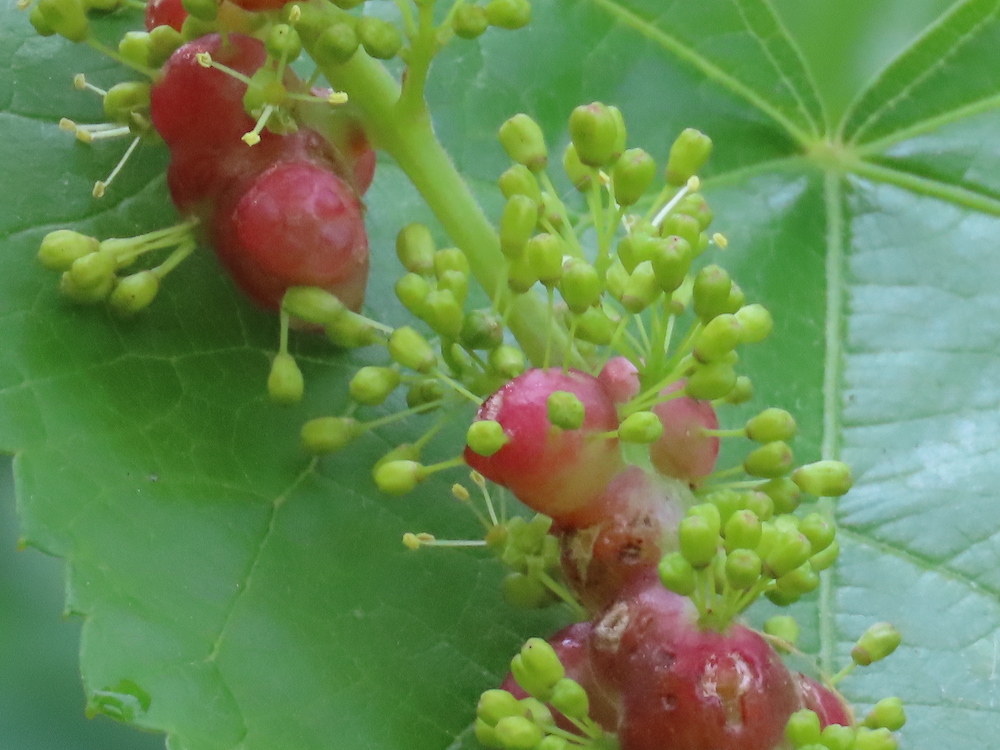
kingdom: Animalia
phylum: Arthropoda
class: Insecta
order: Diptera
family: Cecidomyiidae
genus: Vitisiella
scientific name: Vitisiella brevicauda
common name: Grape tumid gallmaker midge
